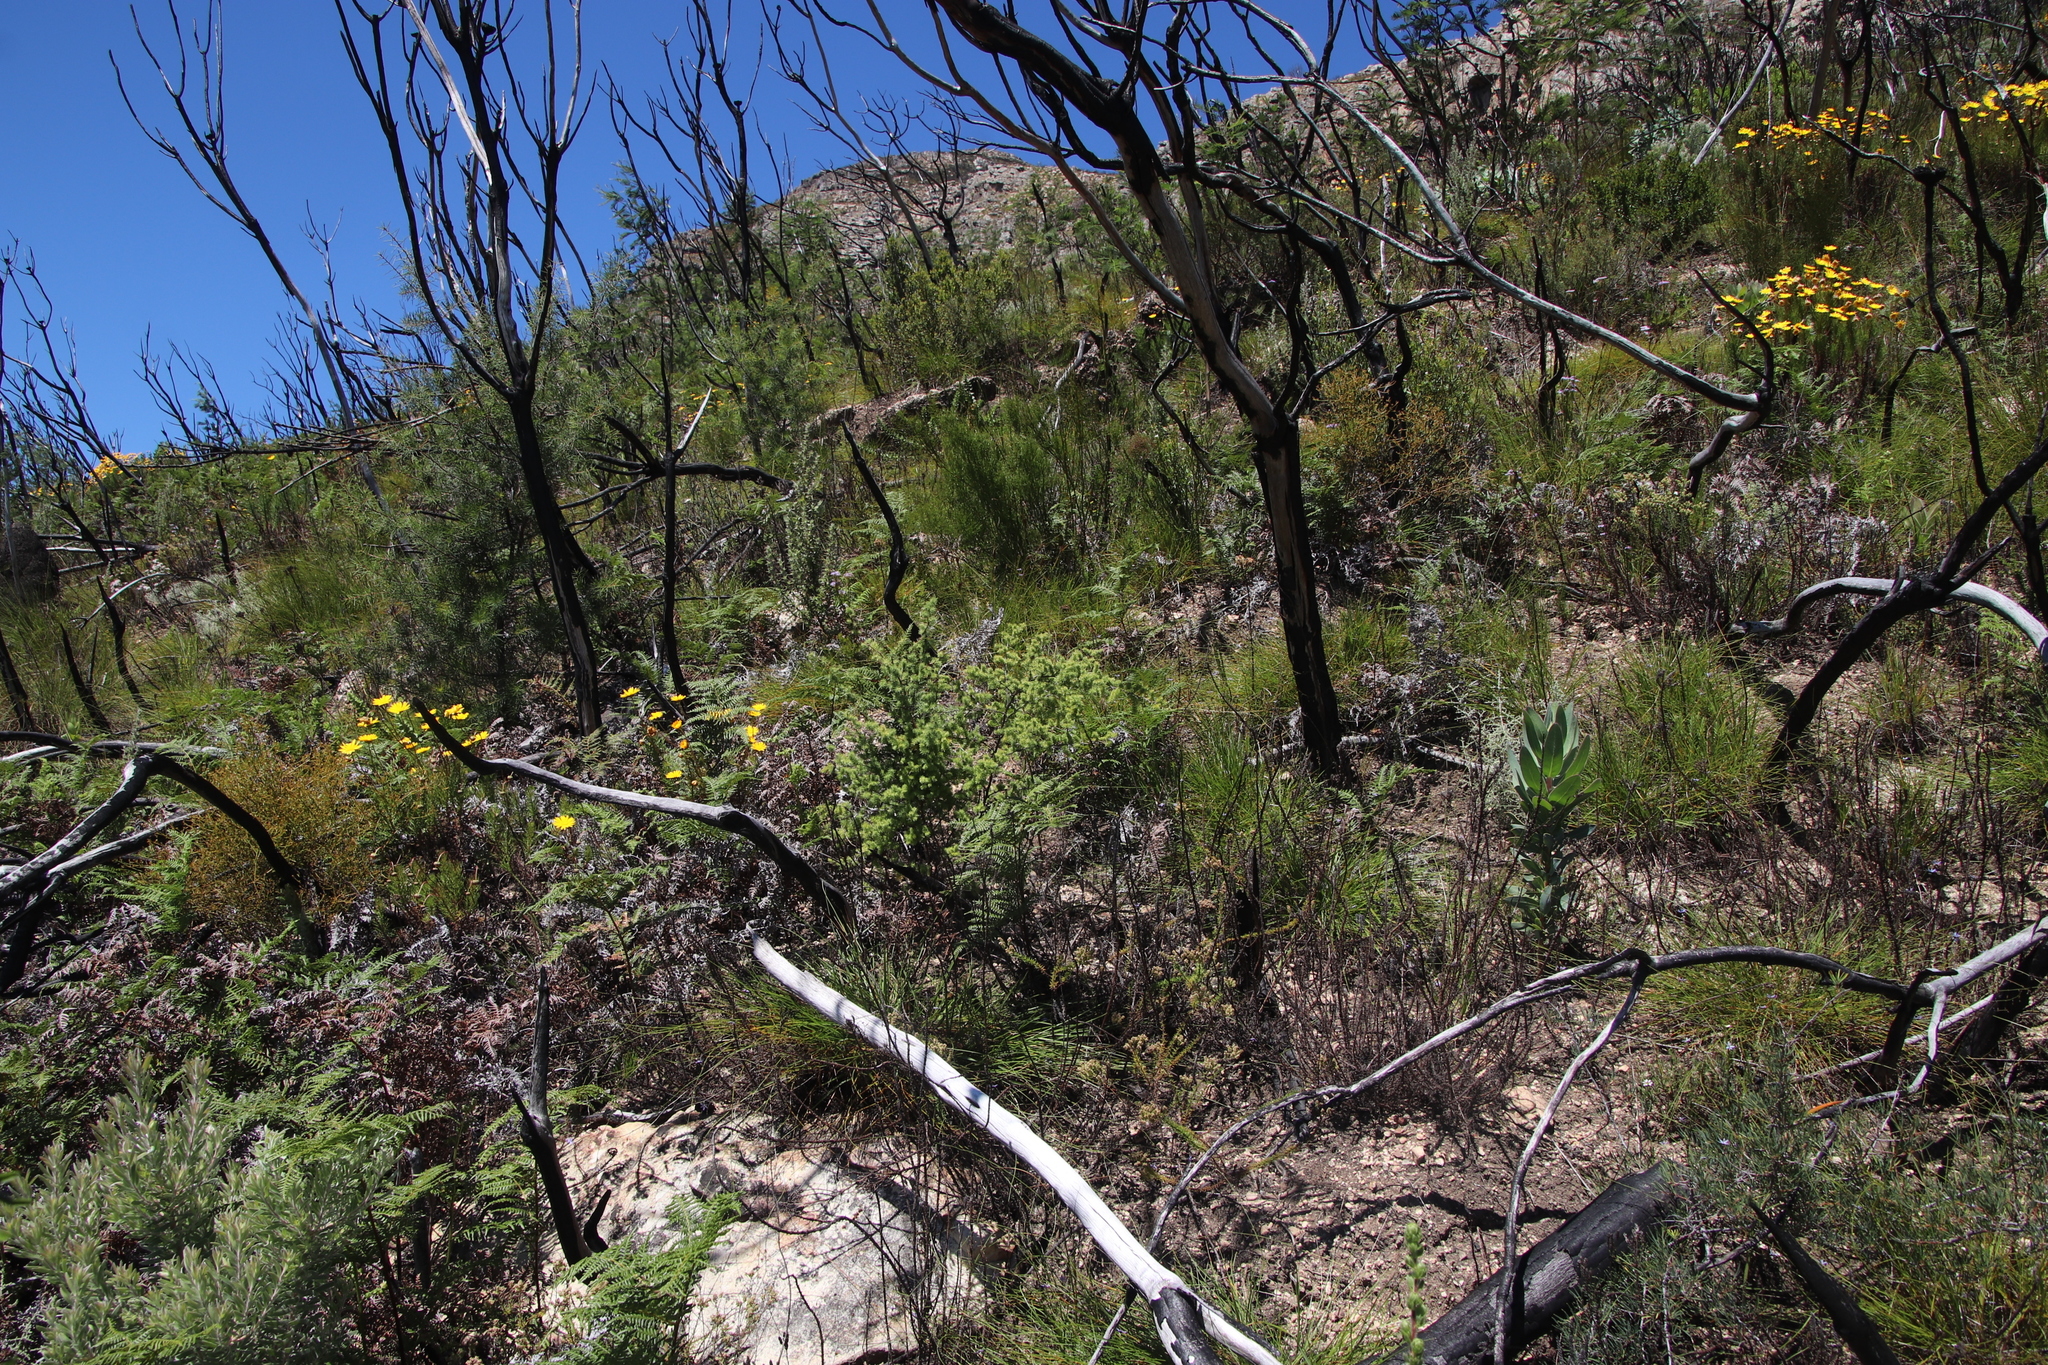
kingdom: Plantae
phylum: Tracheophyta
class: Magnoliopsida
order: Rosales
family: Rosaceae
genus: Cliffortia
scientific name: Cliffortia ruscifolia
